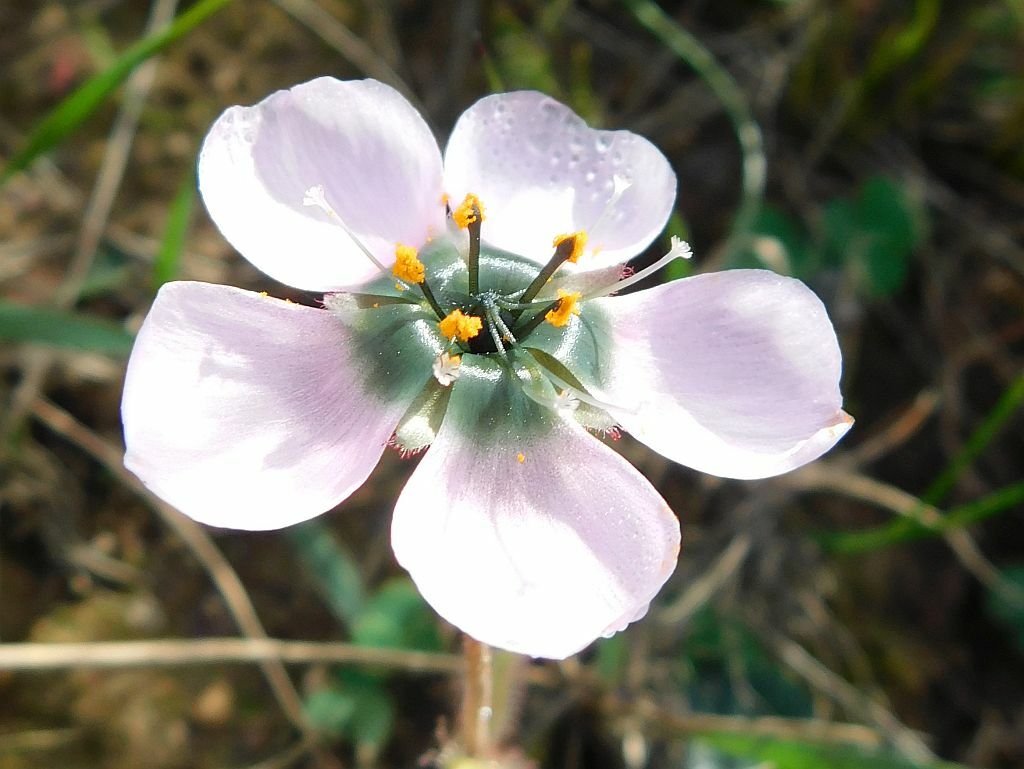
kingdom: Plantae
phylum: Tracheophyta
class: Magnoliopsida
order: Caryophyllales
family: Droseraceae
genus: Drosera
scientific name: Drosera cistiflora
